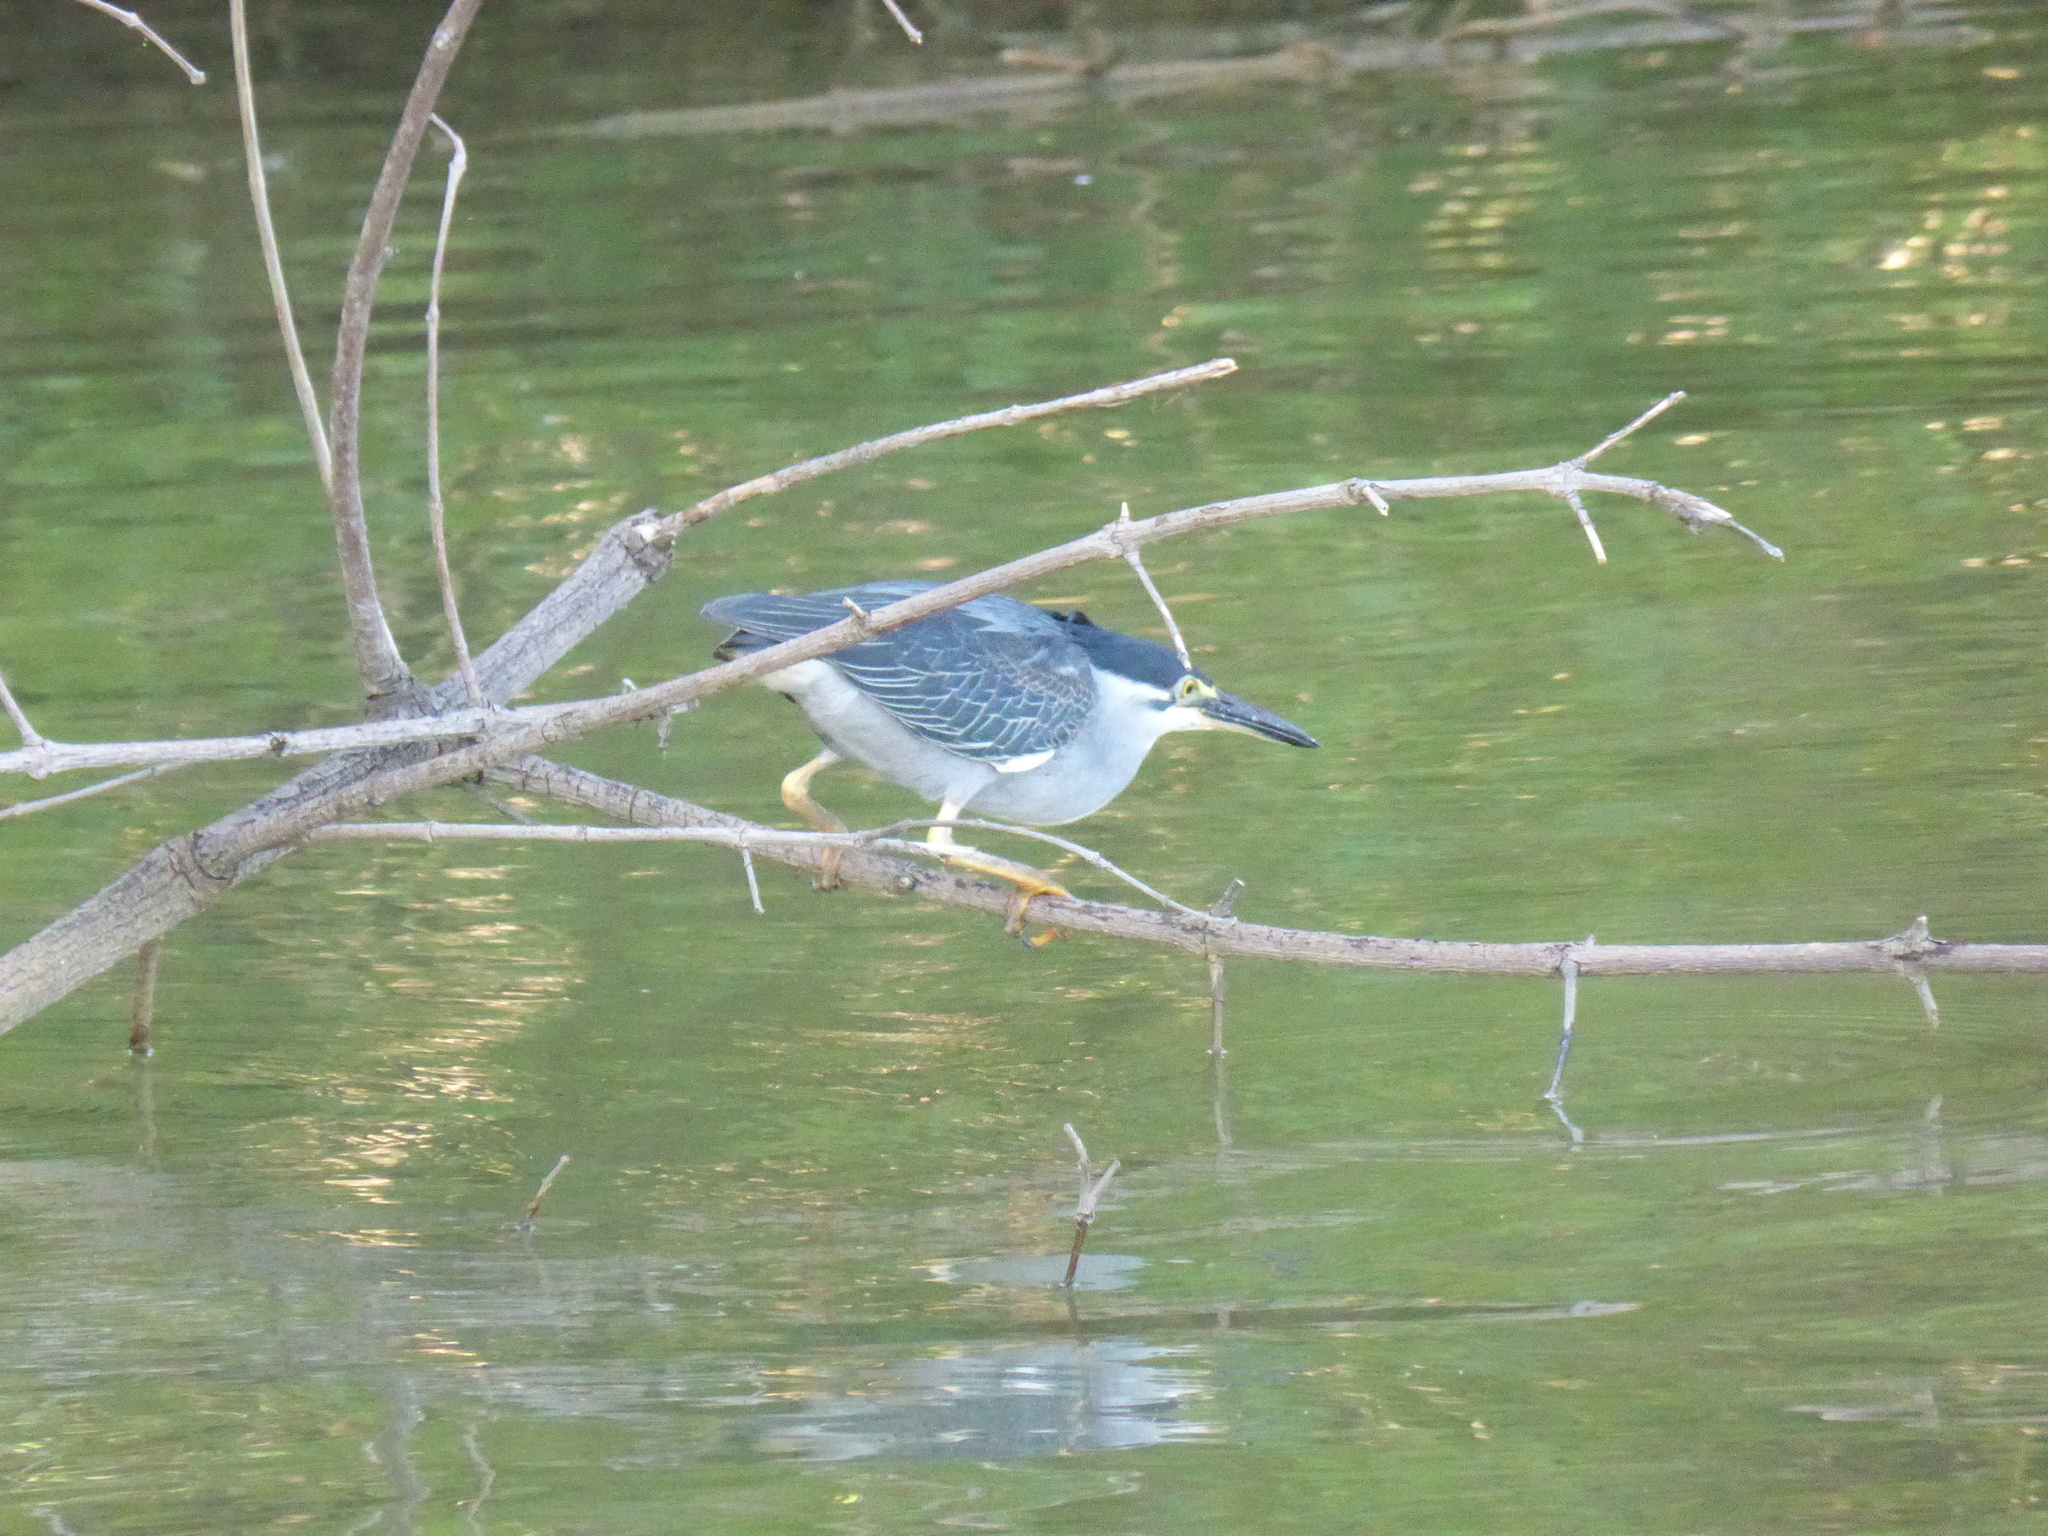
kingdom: Animalia
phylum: Chordata
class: Aves
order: Pelecaniformes
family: Ardeidae
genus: Butorides
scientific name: Butorides striata
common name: Striated heron
